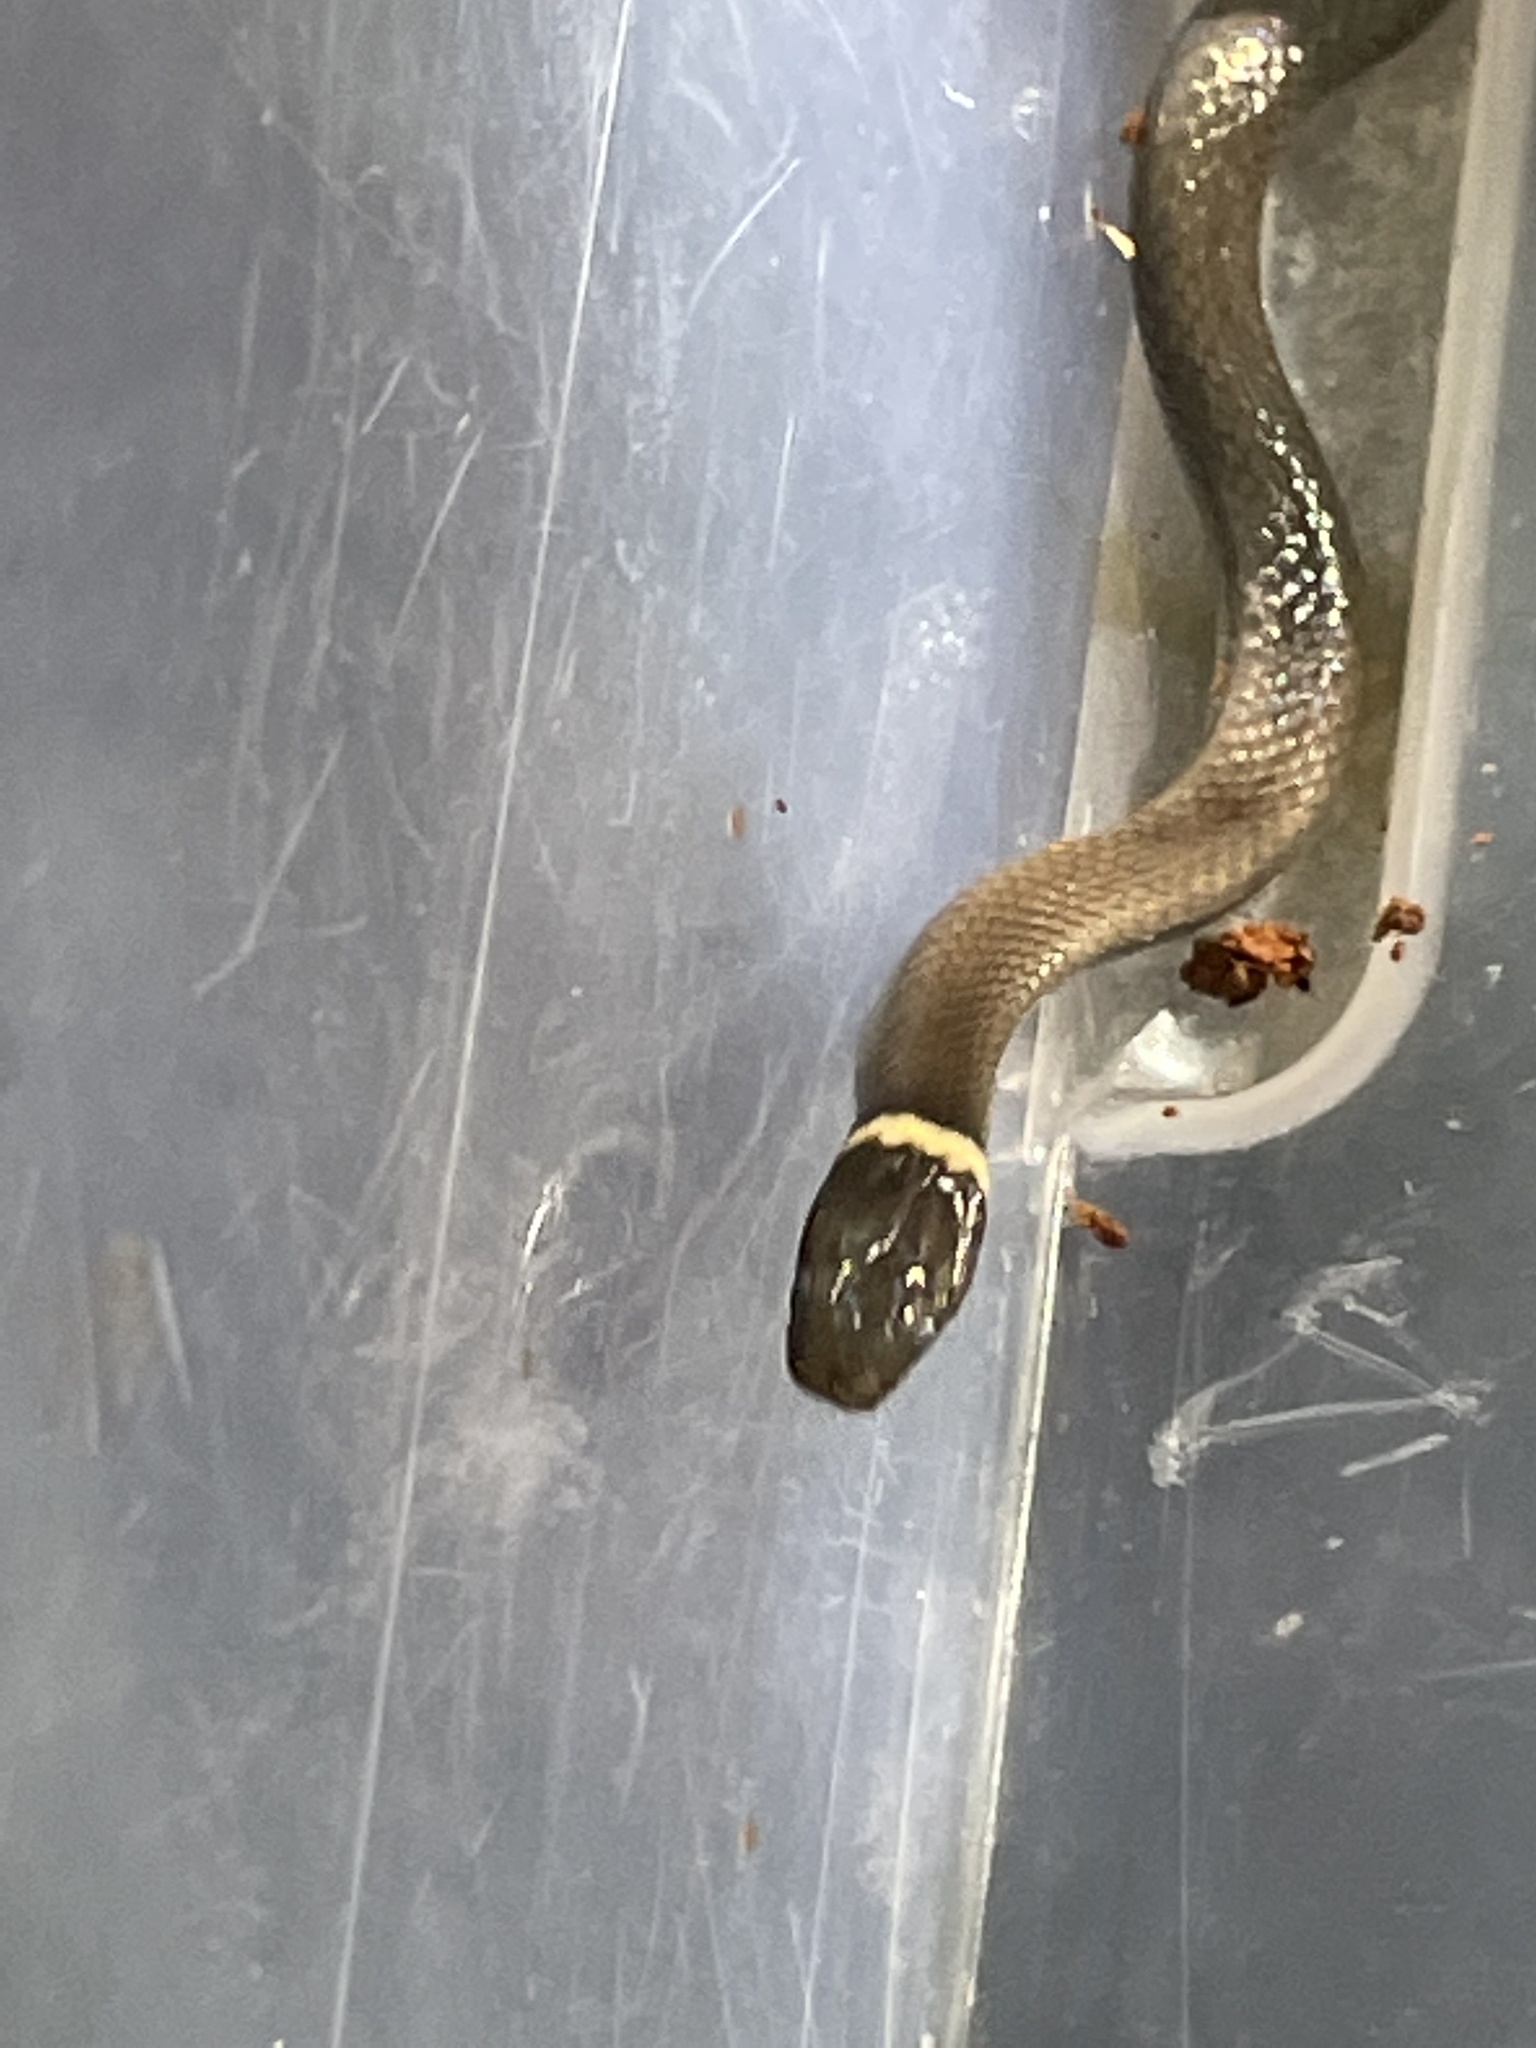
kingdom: Animalia
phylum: Chordata
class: Squamata
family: Colubridae
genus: Diadophis
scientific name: Diadophis punctatus
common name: Ringneck snake
